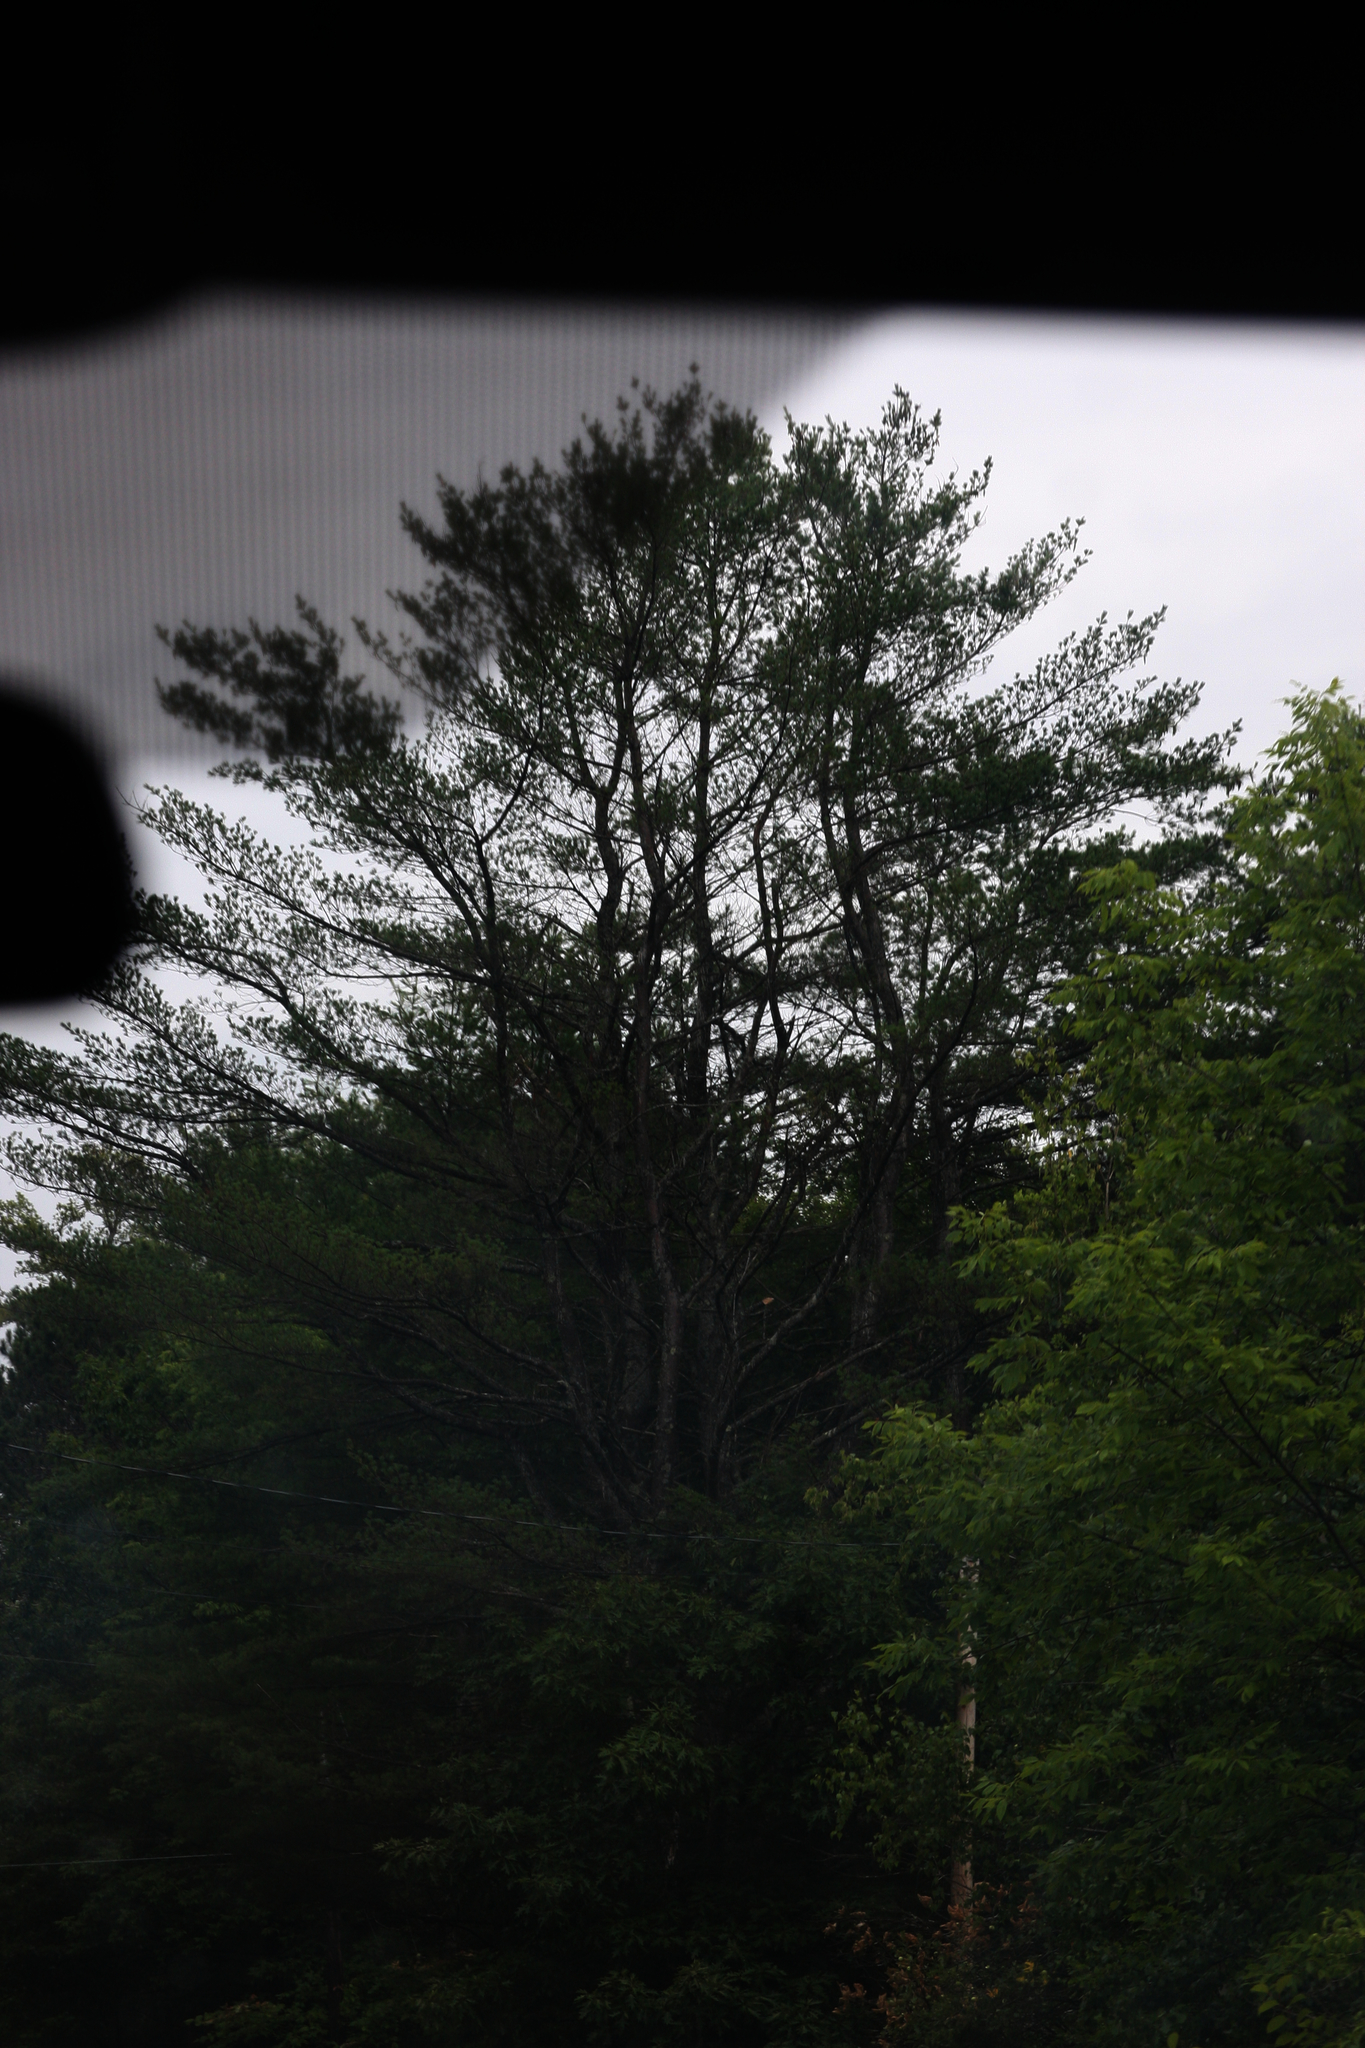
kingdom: Plantae
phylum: Tracheophyta
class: Pinopsida
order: Pinales
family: Pinaceae
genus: Pinus
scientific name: Pinus strobus
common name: Weymouth pine
